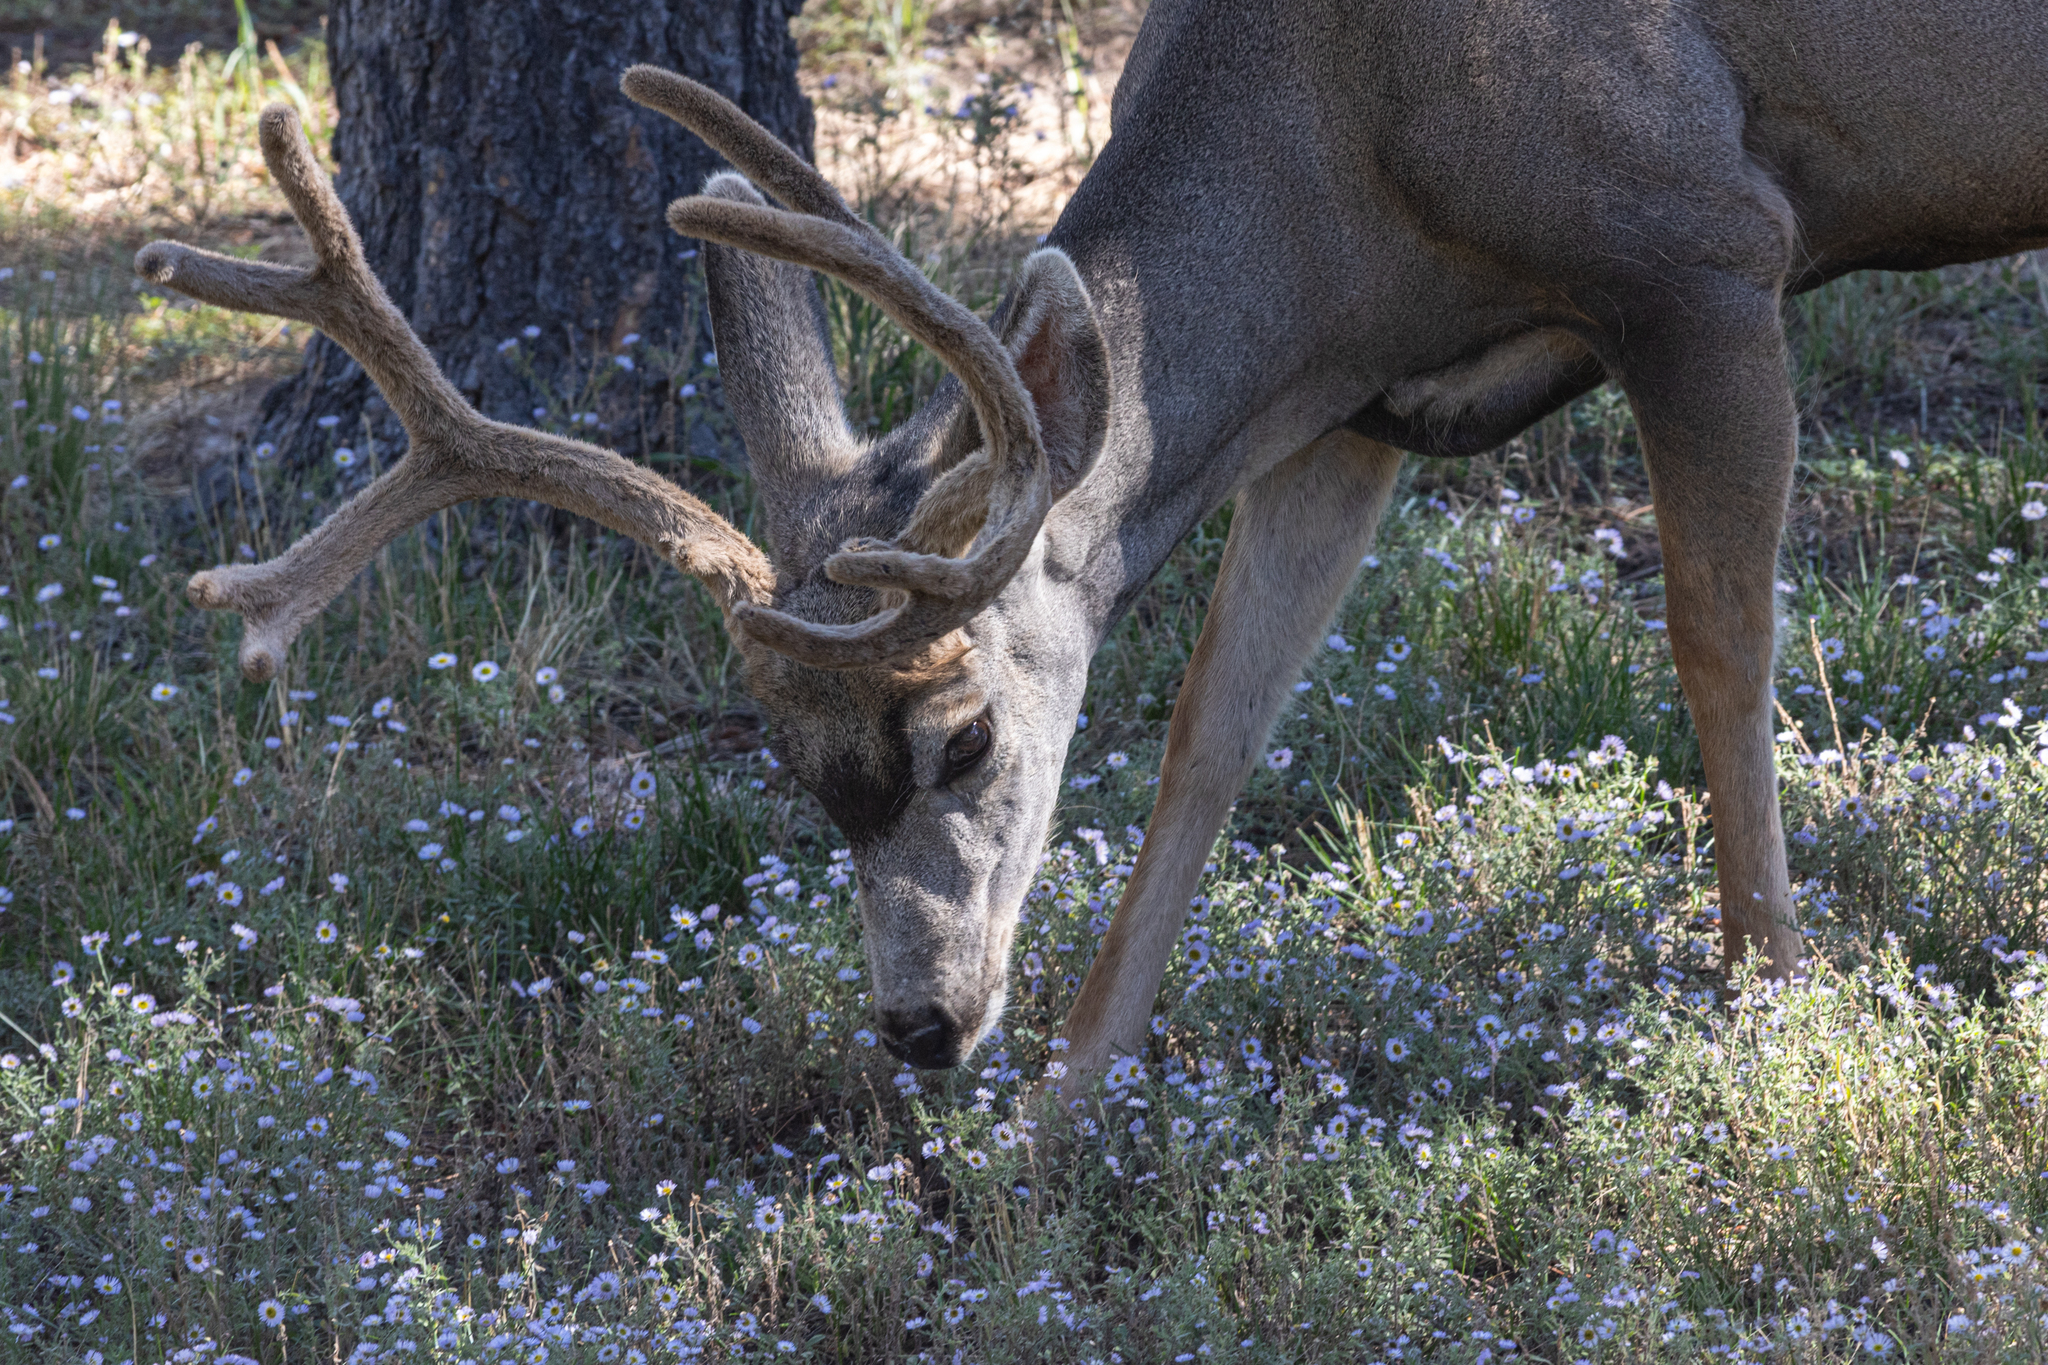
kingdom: Animalia
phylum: Chordata
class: Mammalia
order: Artiodactyla
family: Cervidae
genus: Odocoileus
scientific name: Odocoileus hemionus
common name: Mule deer
